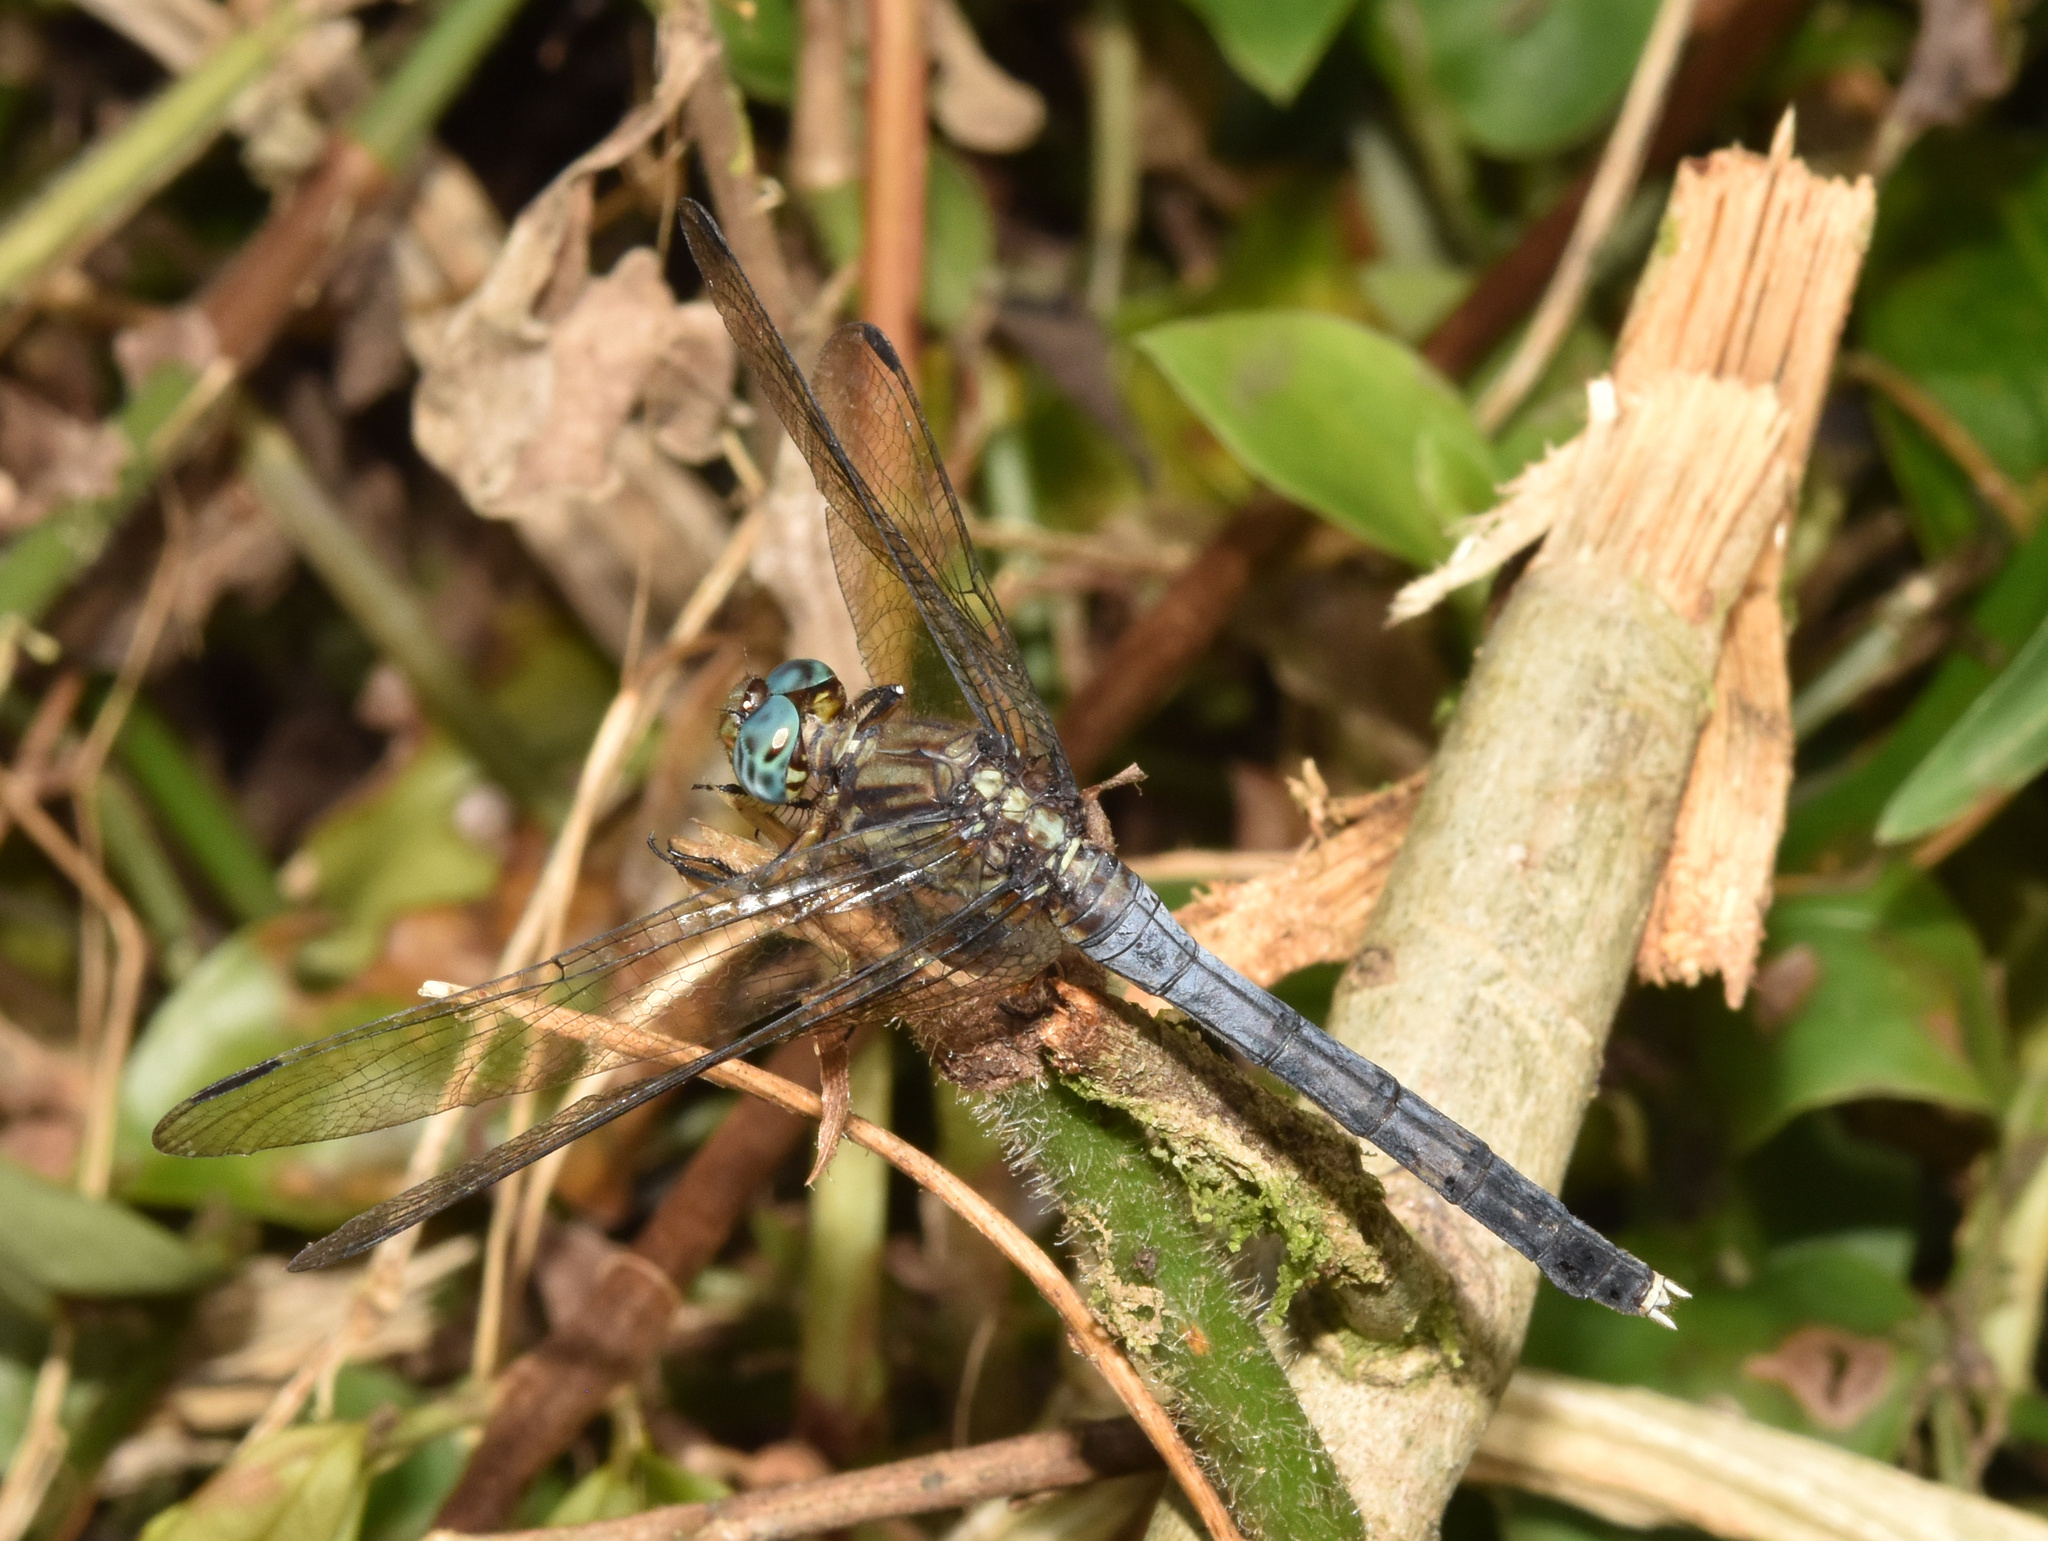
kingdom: Animalia
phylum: Arthropoda
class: Insecta
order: Odonata
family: Libellulidae
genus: Orthetrum
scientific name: Orthetrum julia
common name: Julia skimmer
